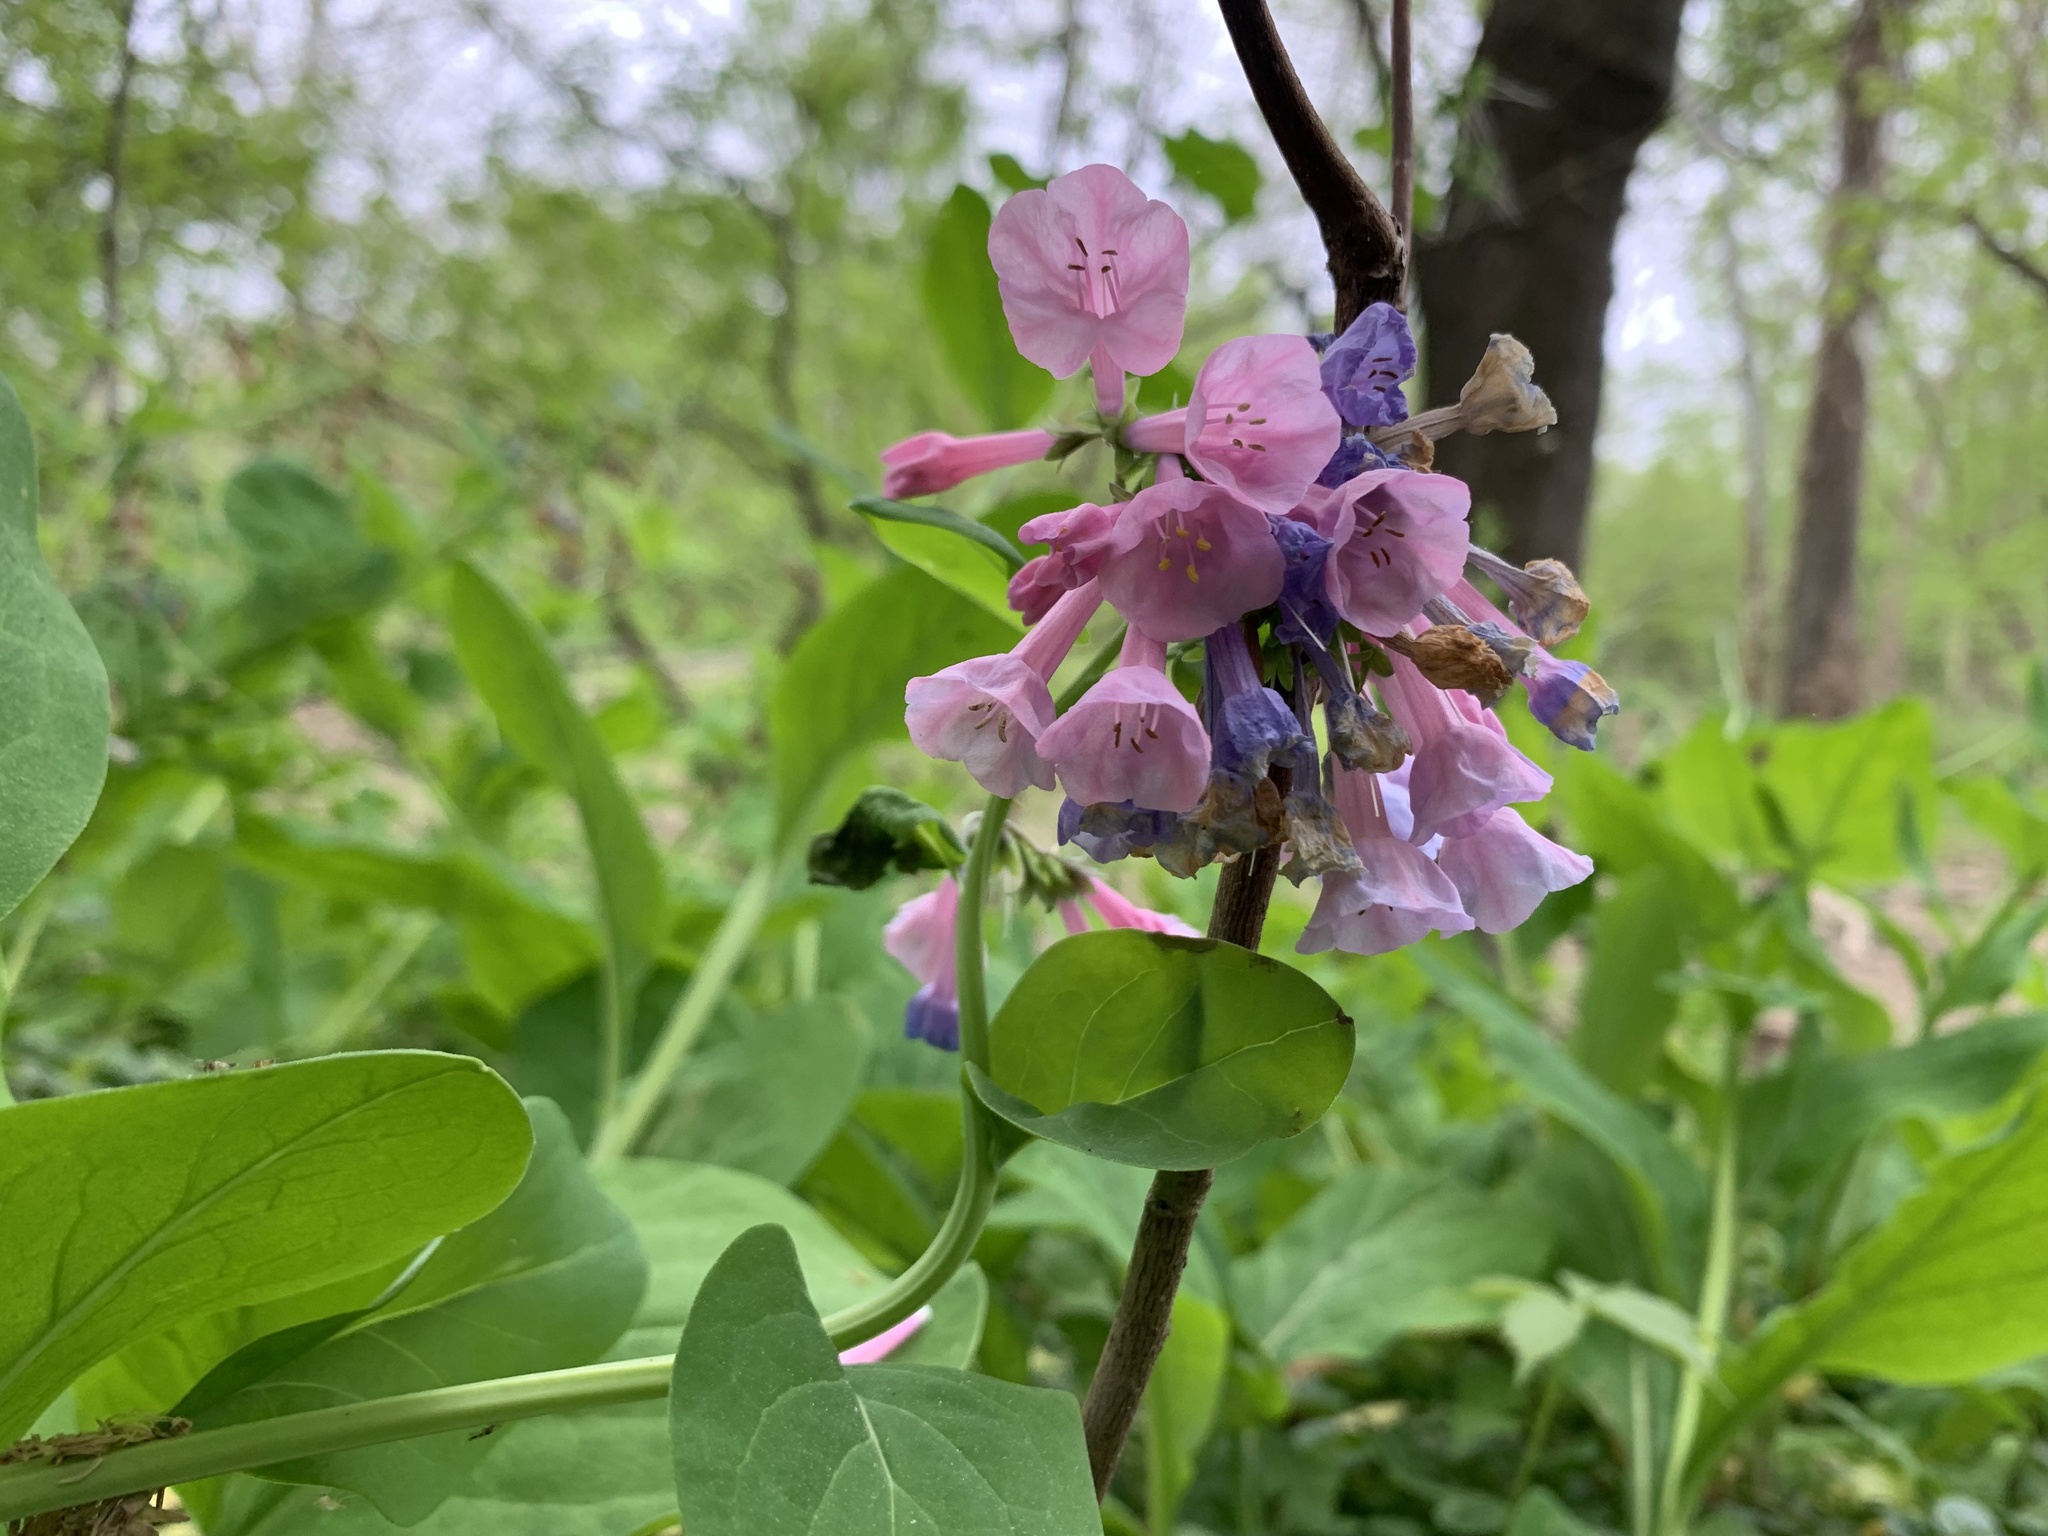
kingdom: Plantae
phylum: Tracheophyta
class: Magnoliopsida
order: Boraginales
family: Boraginaceae
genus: Mertensia
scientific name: Mertensia virginica
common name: Virginia bluebells
